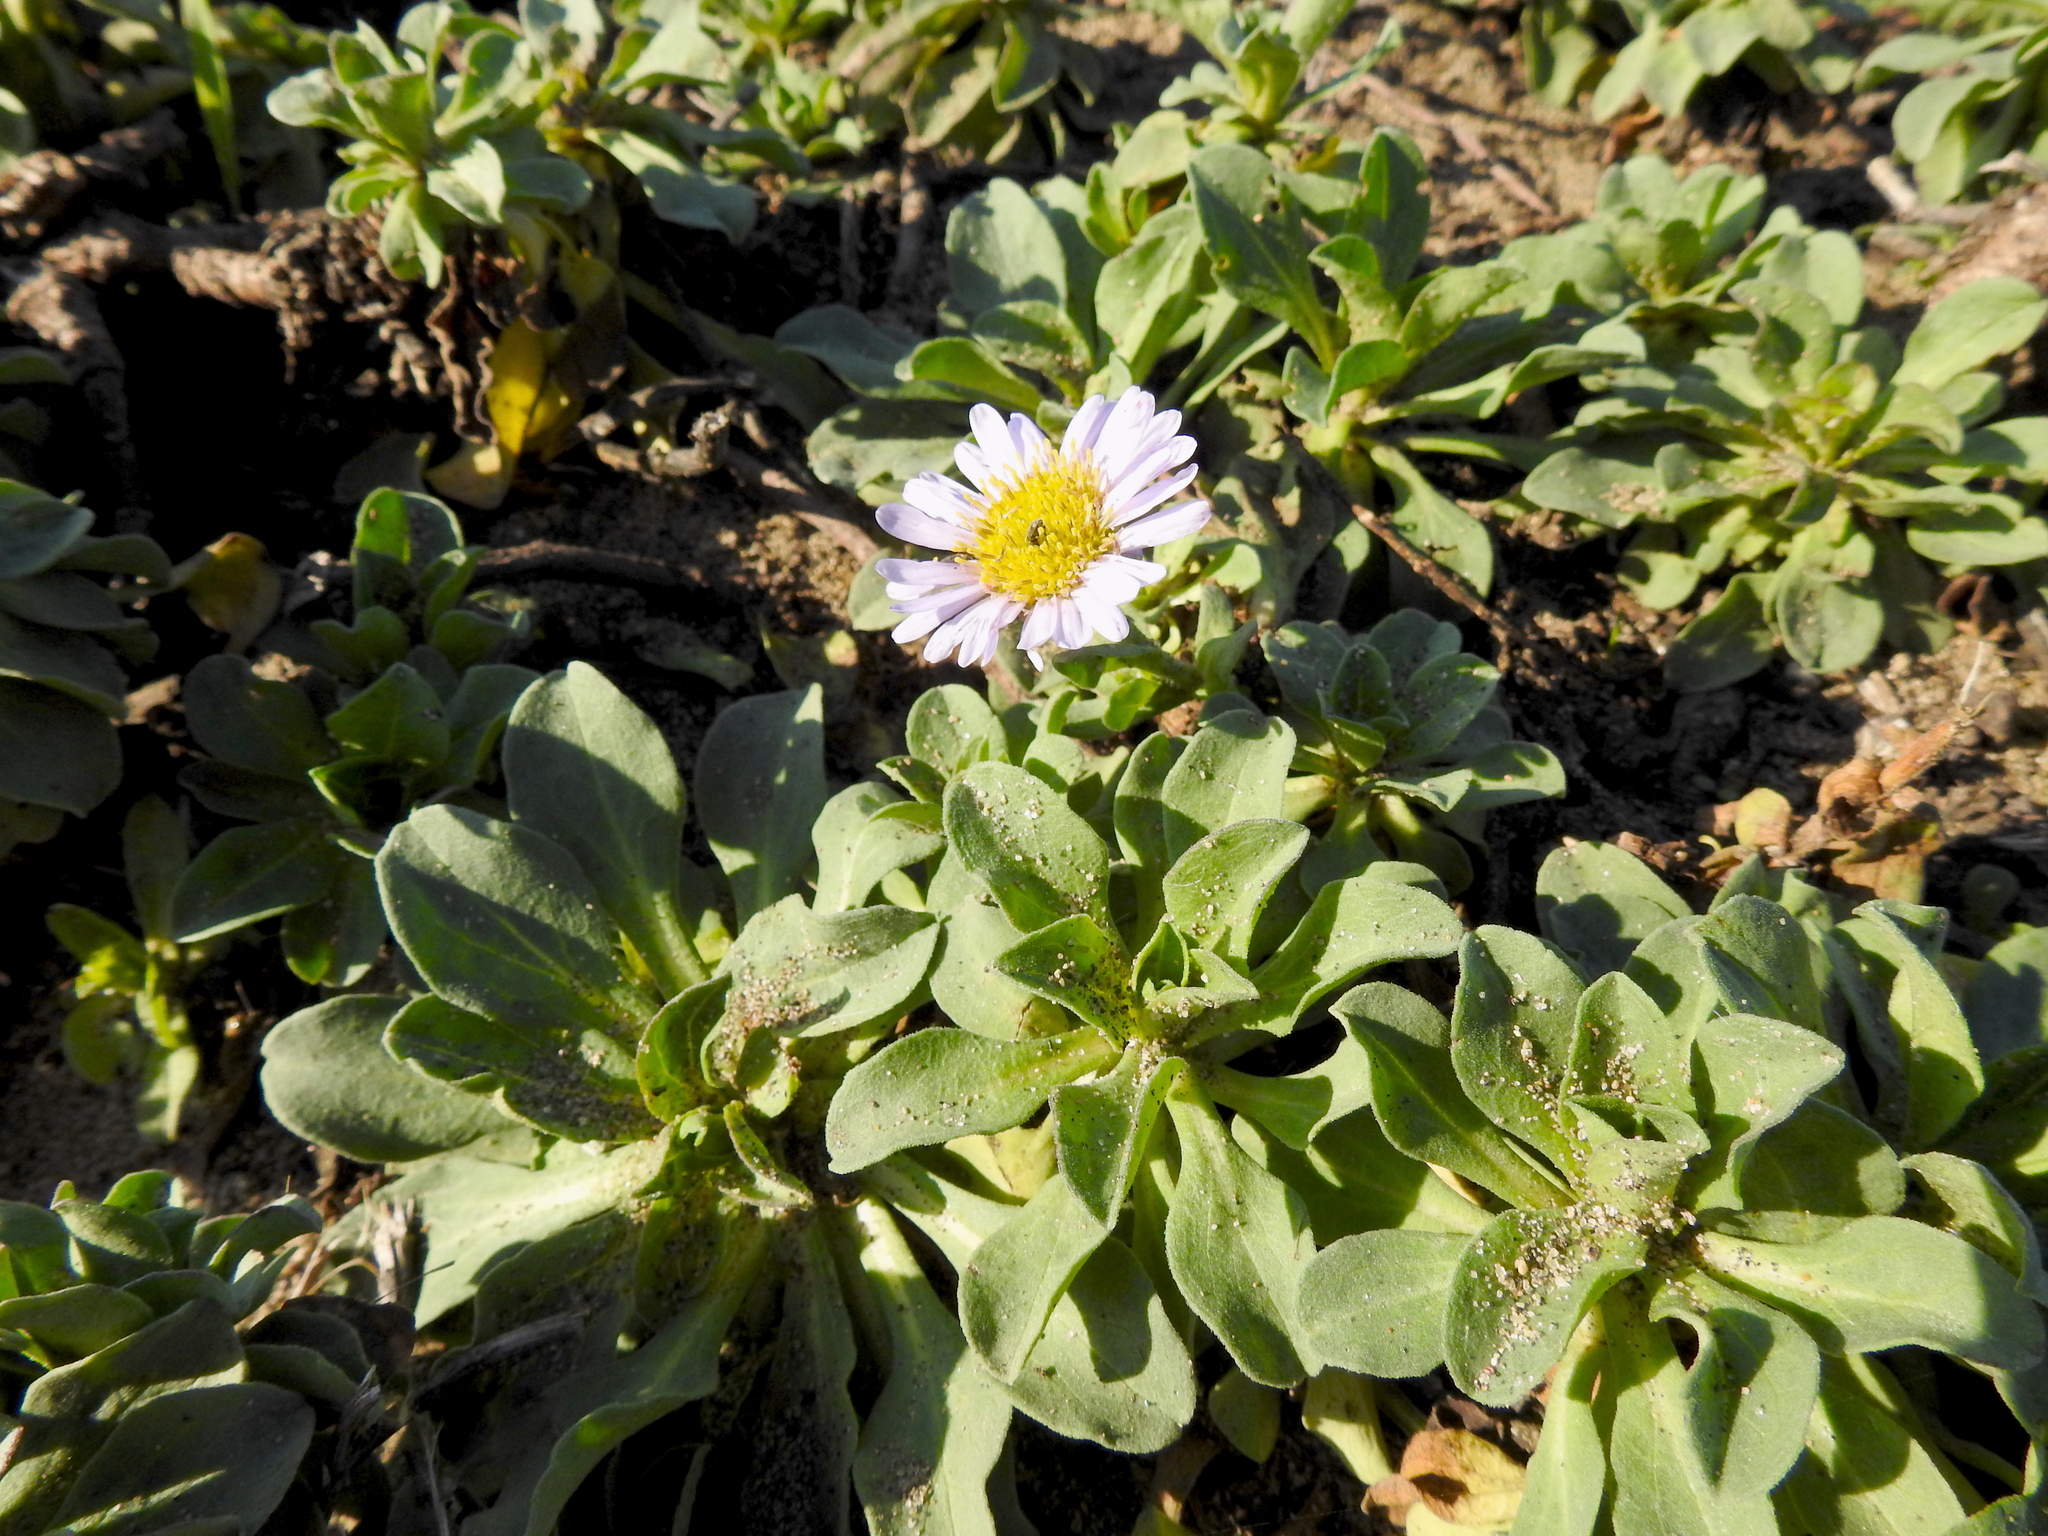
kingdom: Plantae
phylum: Tracheophyta
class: Magnoliopsida
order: Asterales
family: Asteraceae
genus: Erigeron
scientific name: Erigeron glaucus
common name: Seaside daisy
